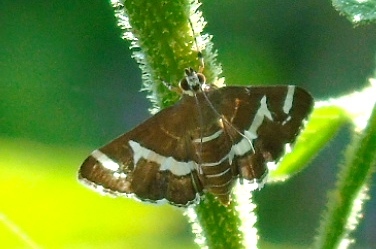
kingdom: Animalia
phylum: Arthropoda
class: Insecta
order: Lepidoptera
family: Crambidae
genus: Spoladea
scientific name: Spoladea recurvalis
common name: Beet webworm moth
